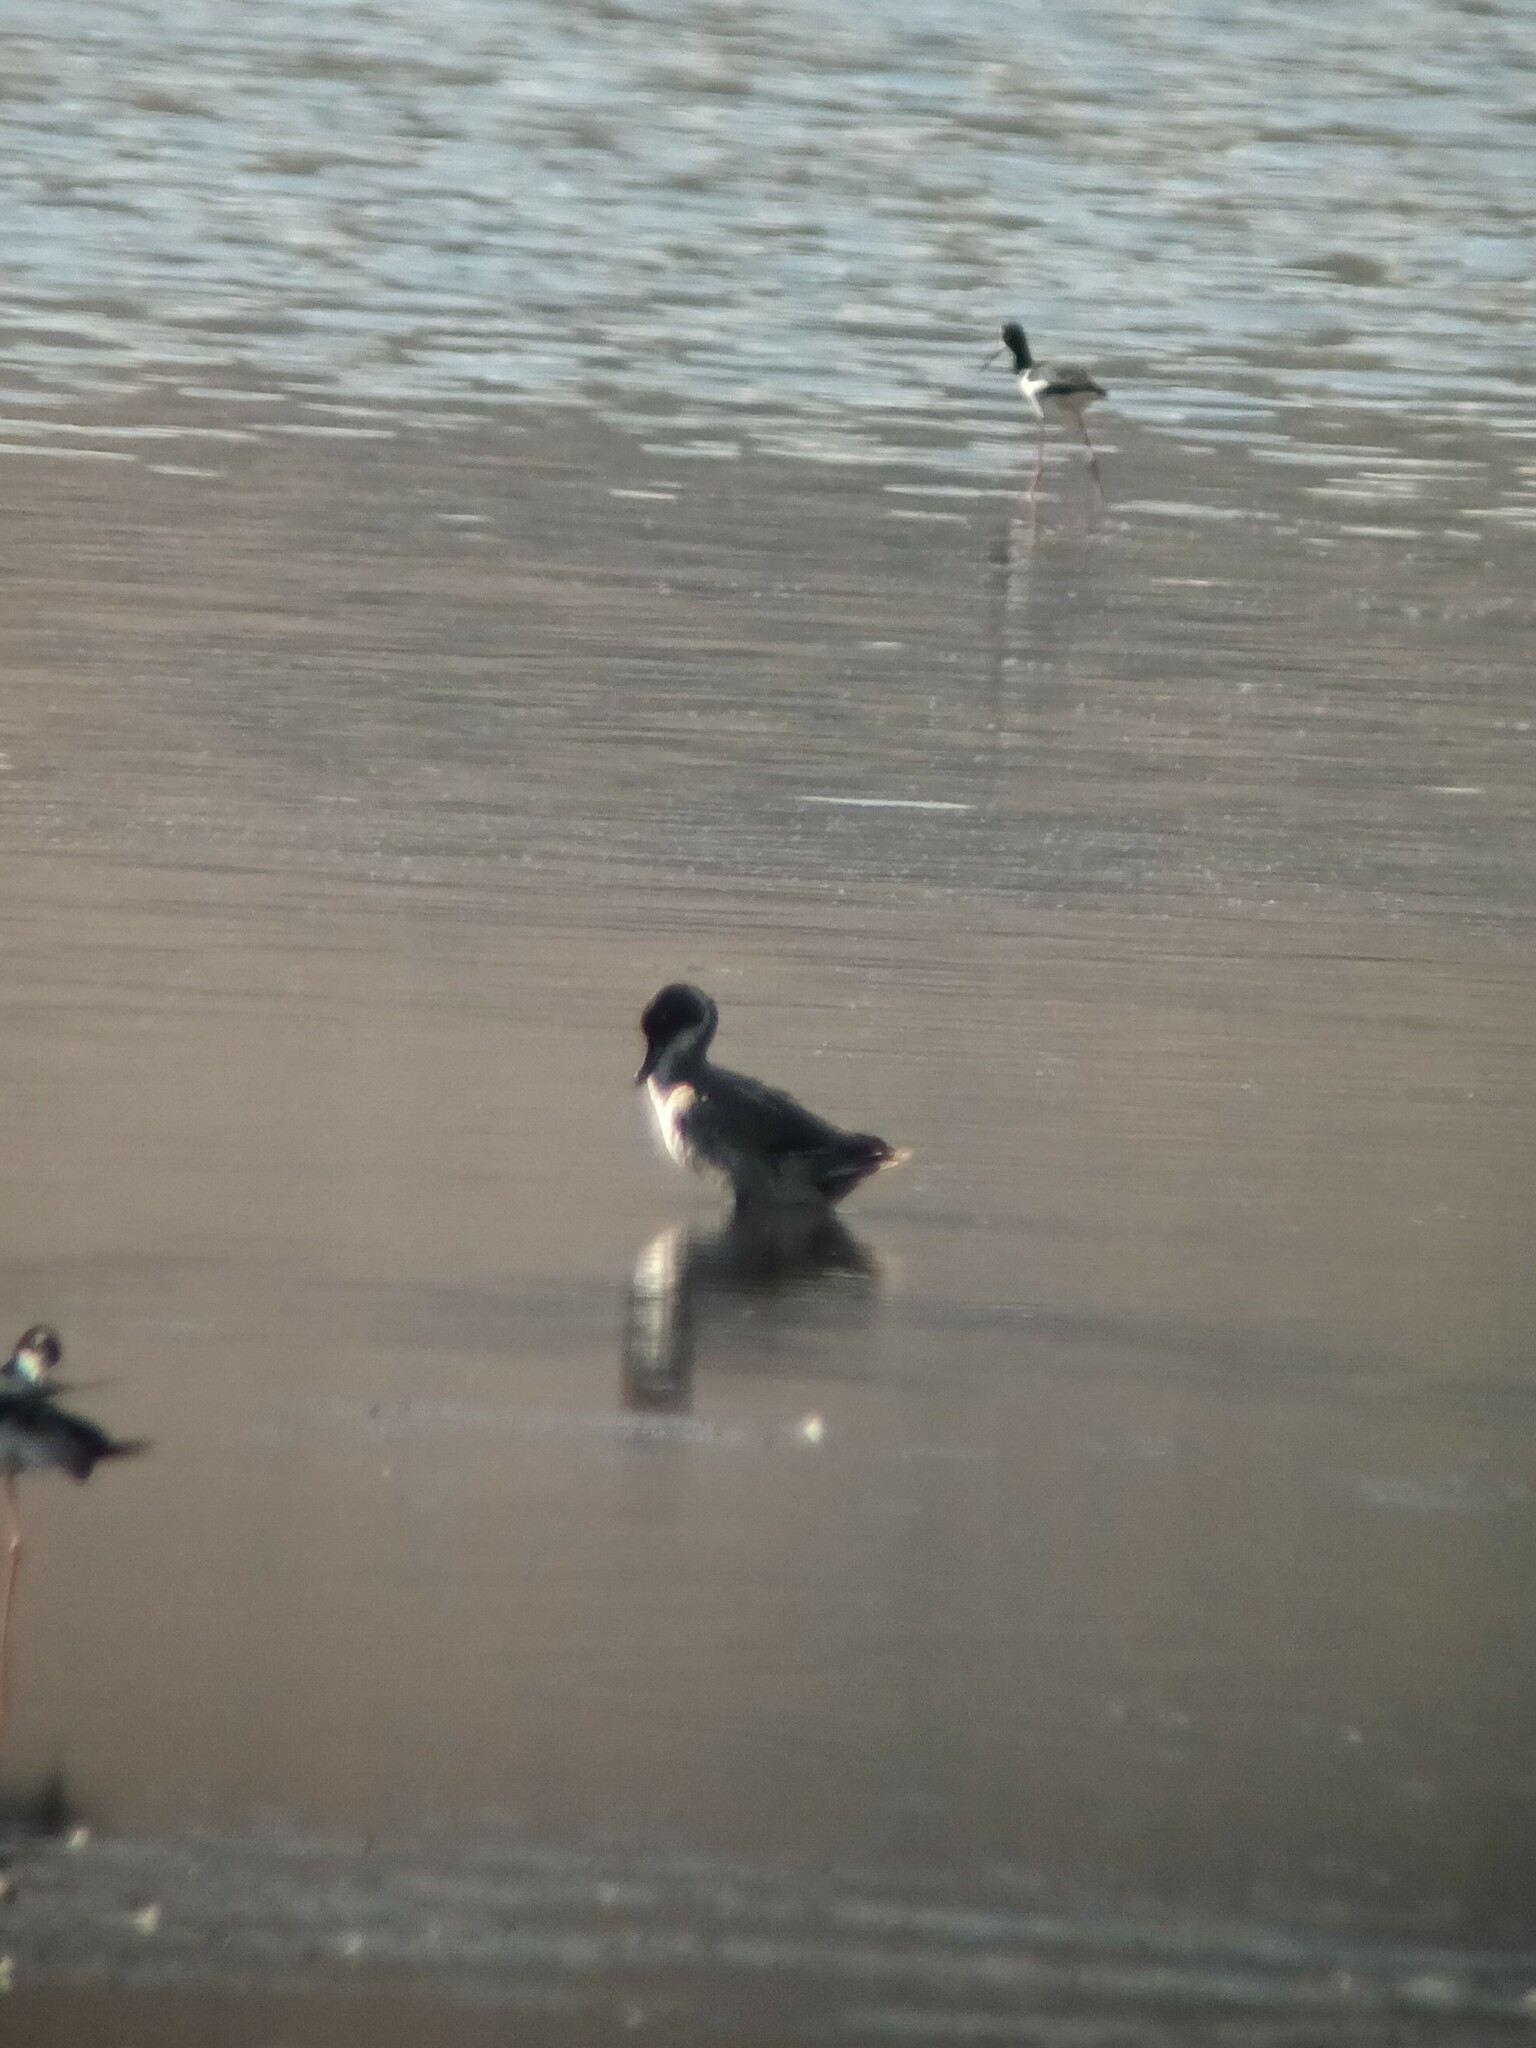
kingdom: Animalia
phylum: Chordata
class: Aves
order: Anseriformes
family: Anatidae
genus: Anas
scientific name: Anas acuta
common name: Northern pintail
